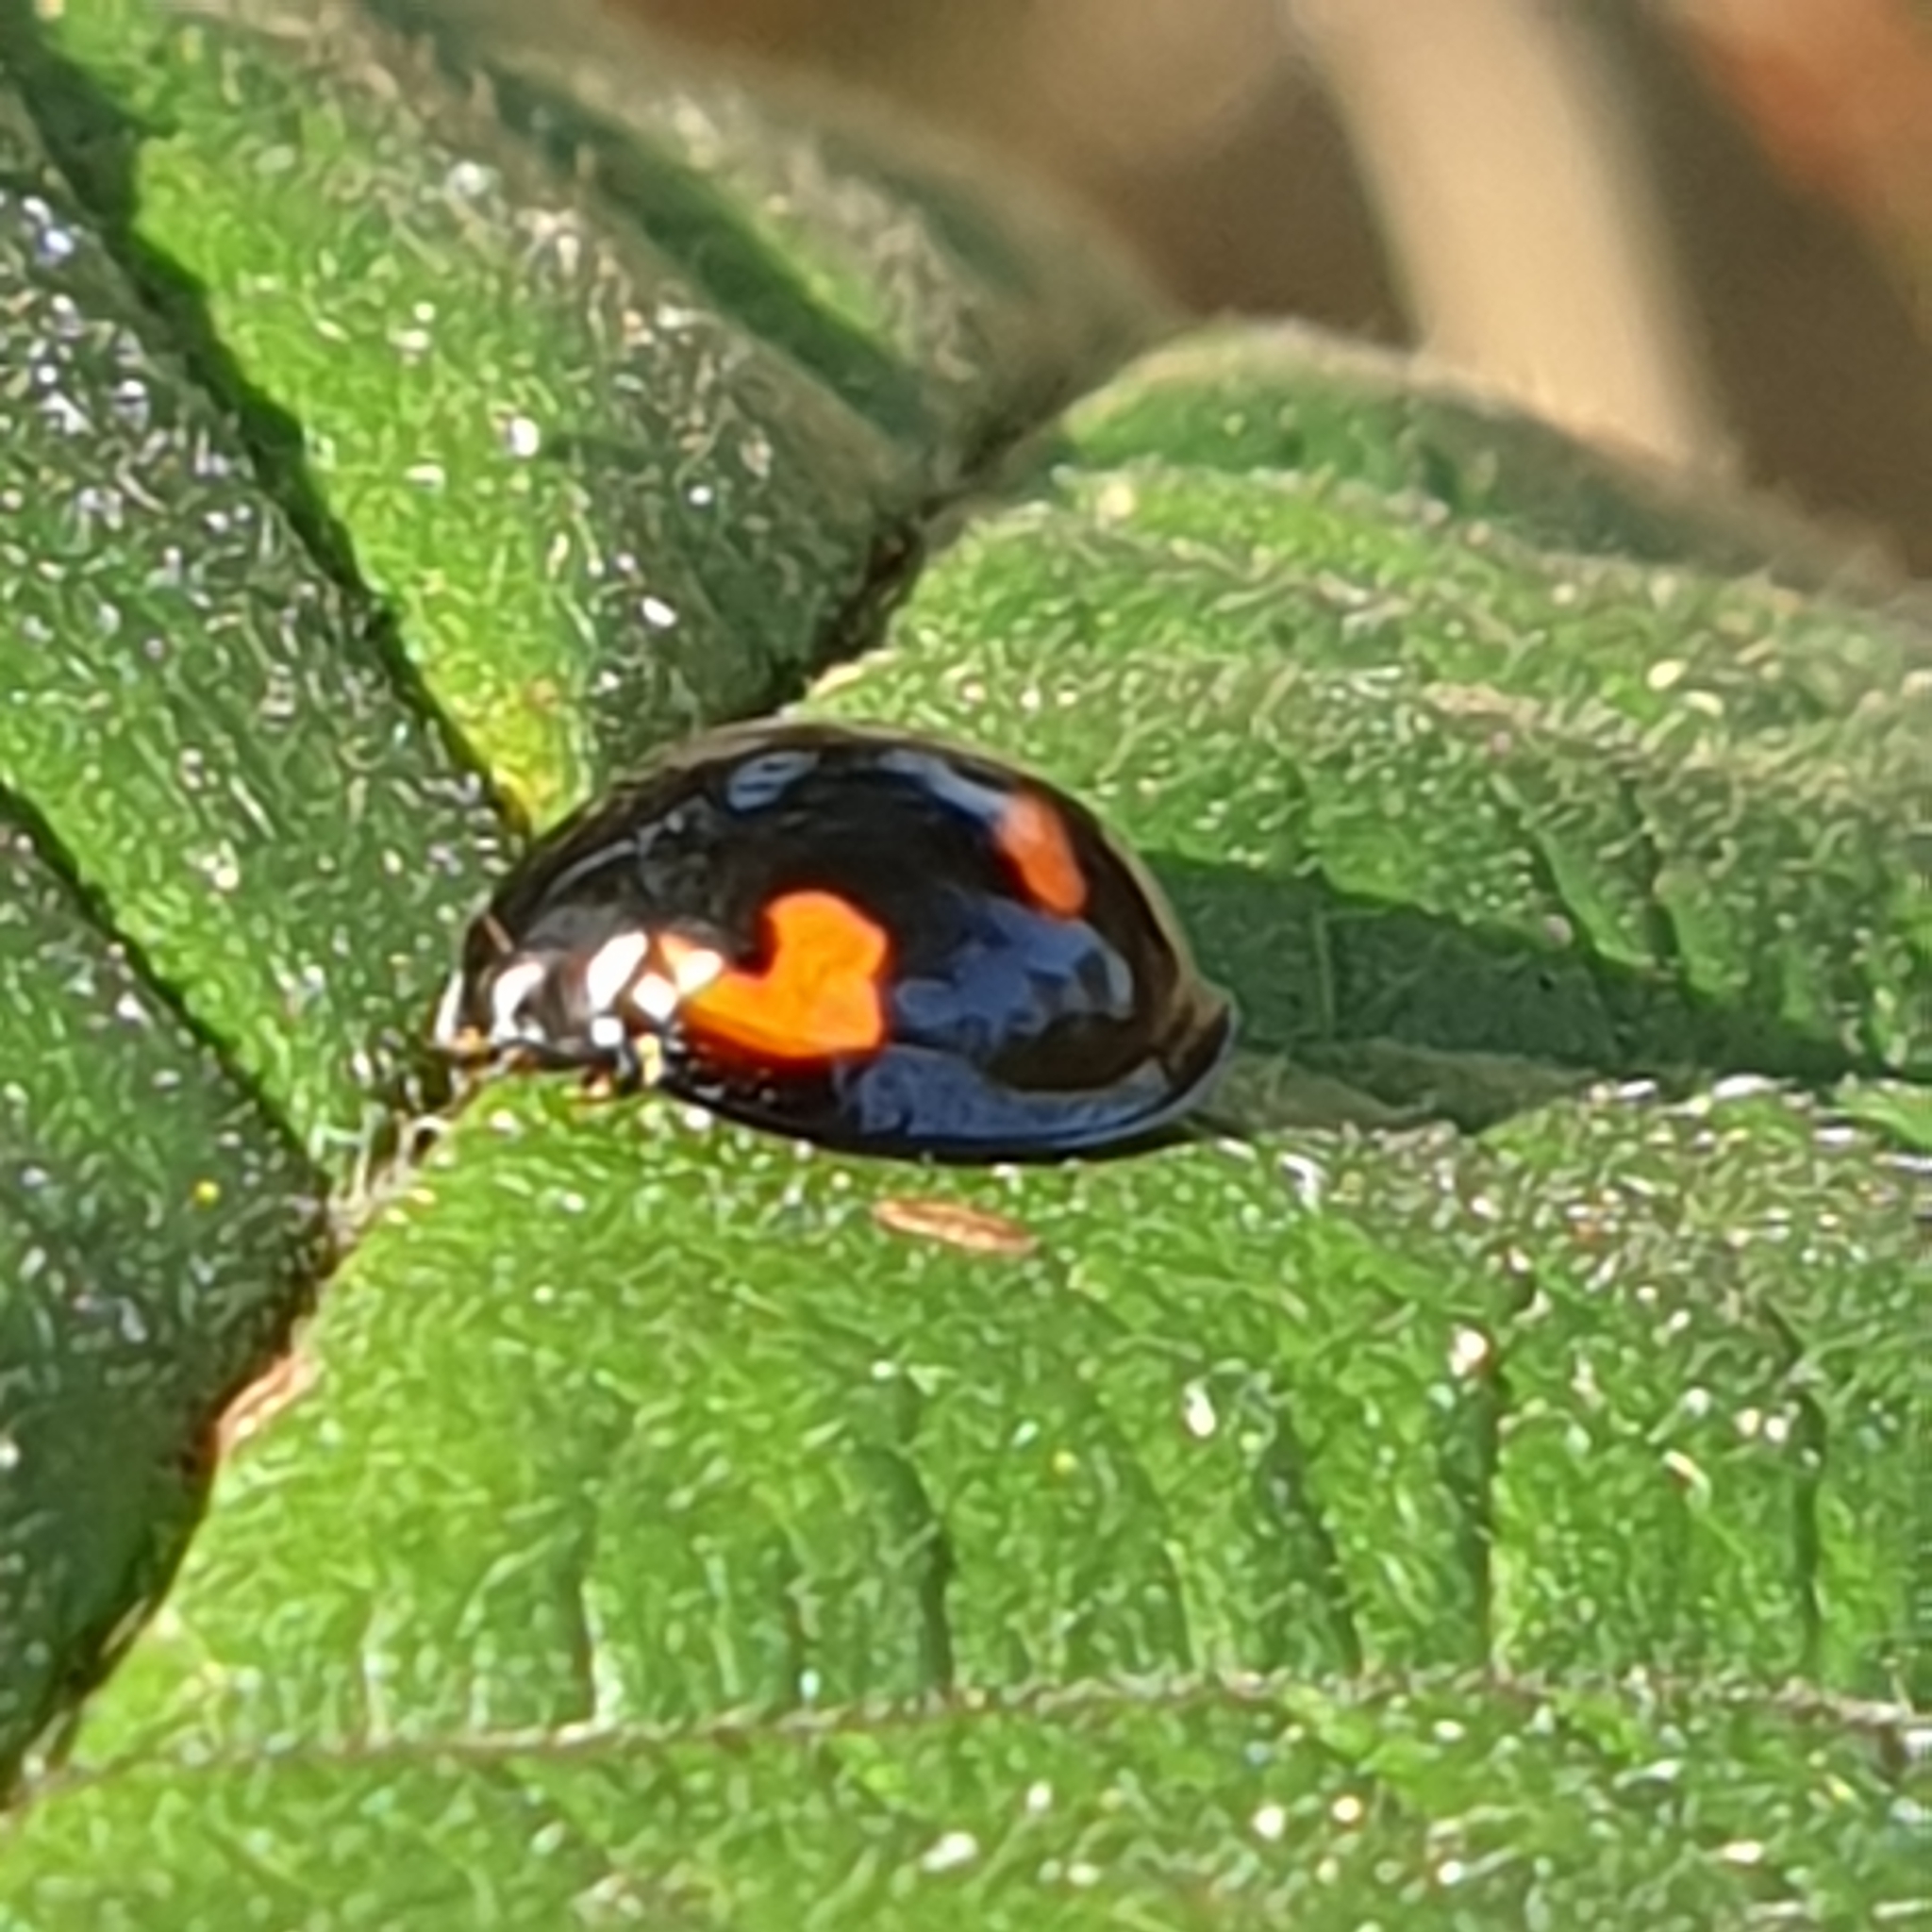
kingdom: Animalia
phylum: Arthropoda
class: Insecta
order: Coleoptera
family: Coccinellidae
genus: Brumus
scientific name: Brumus quadripustulatus
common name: Ladybird beetle
